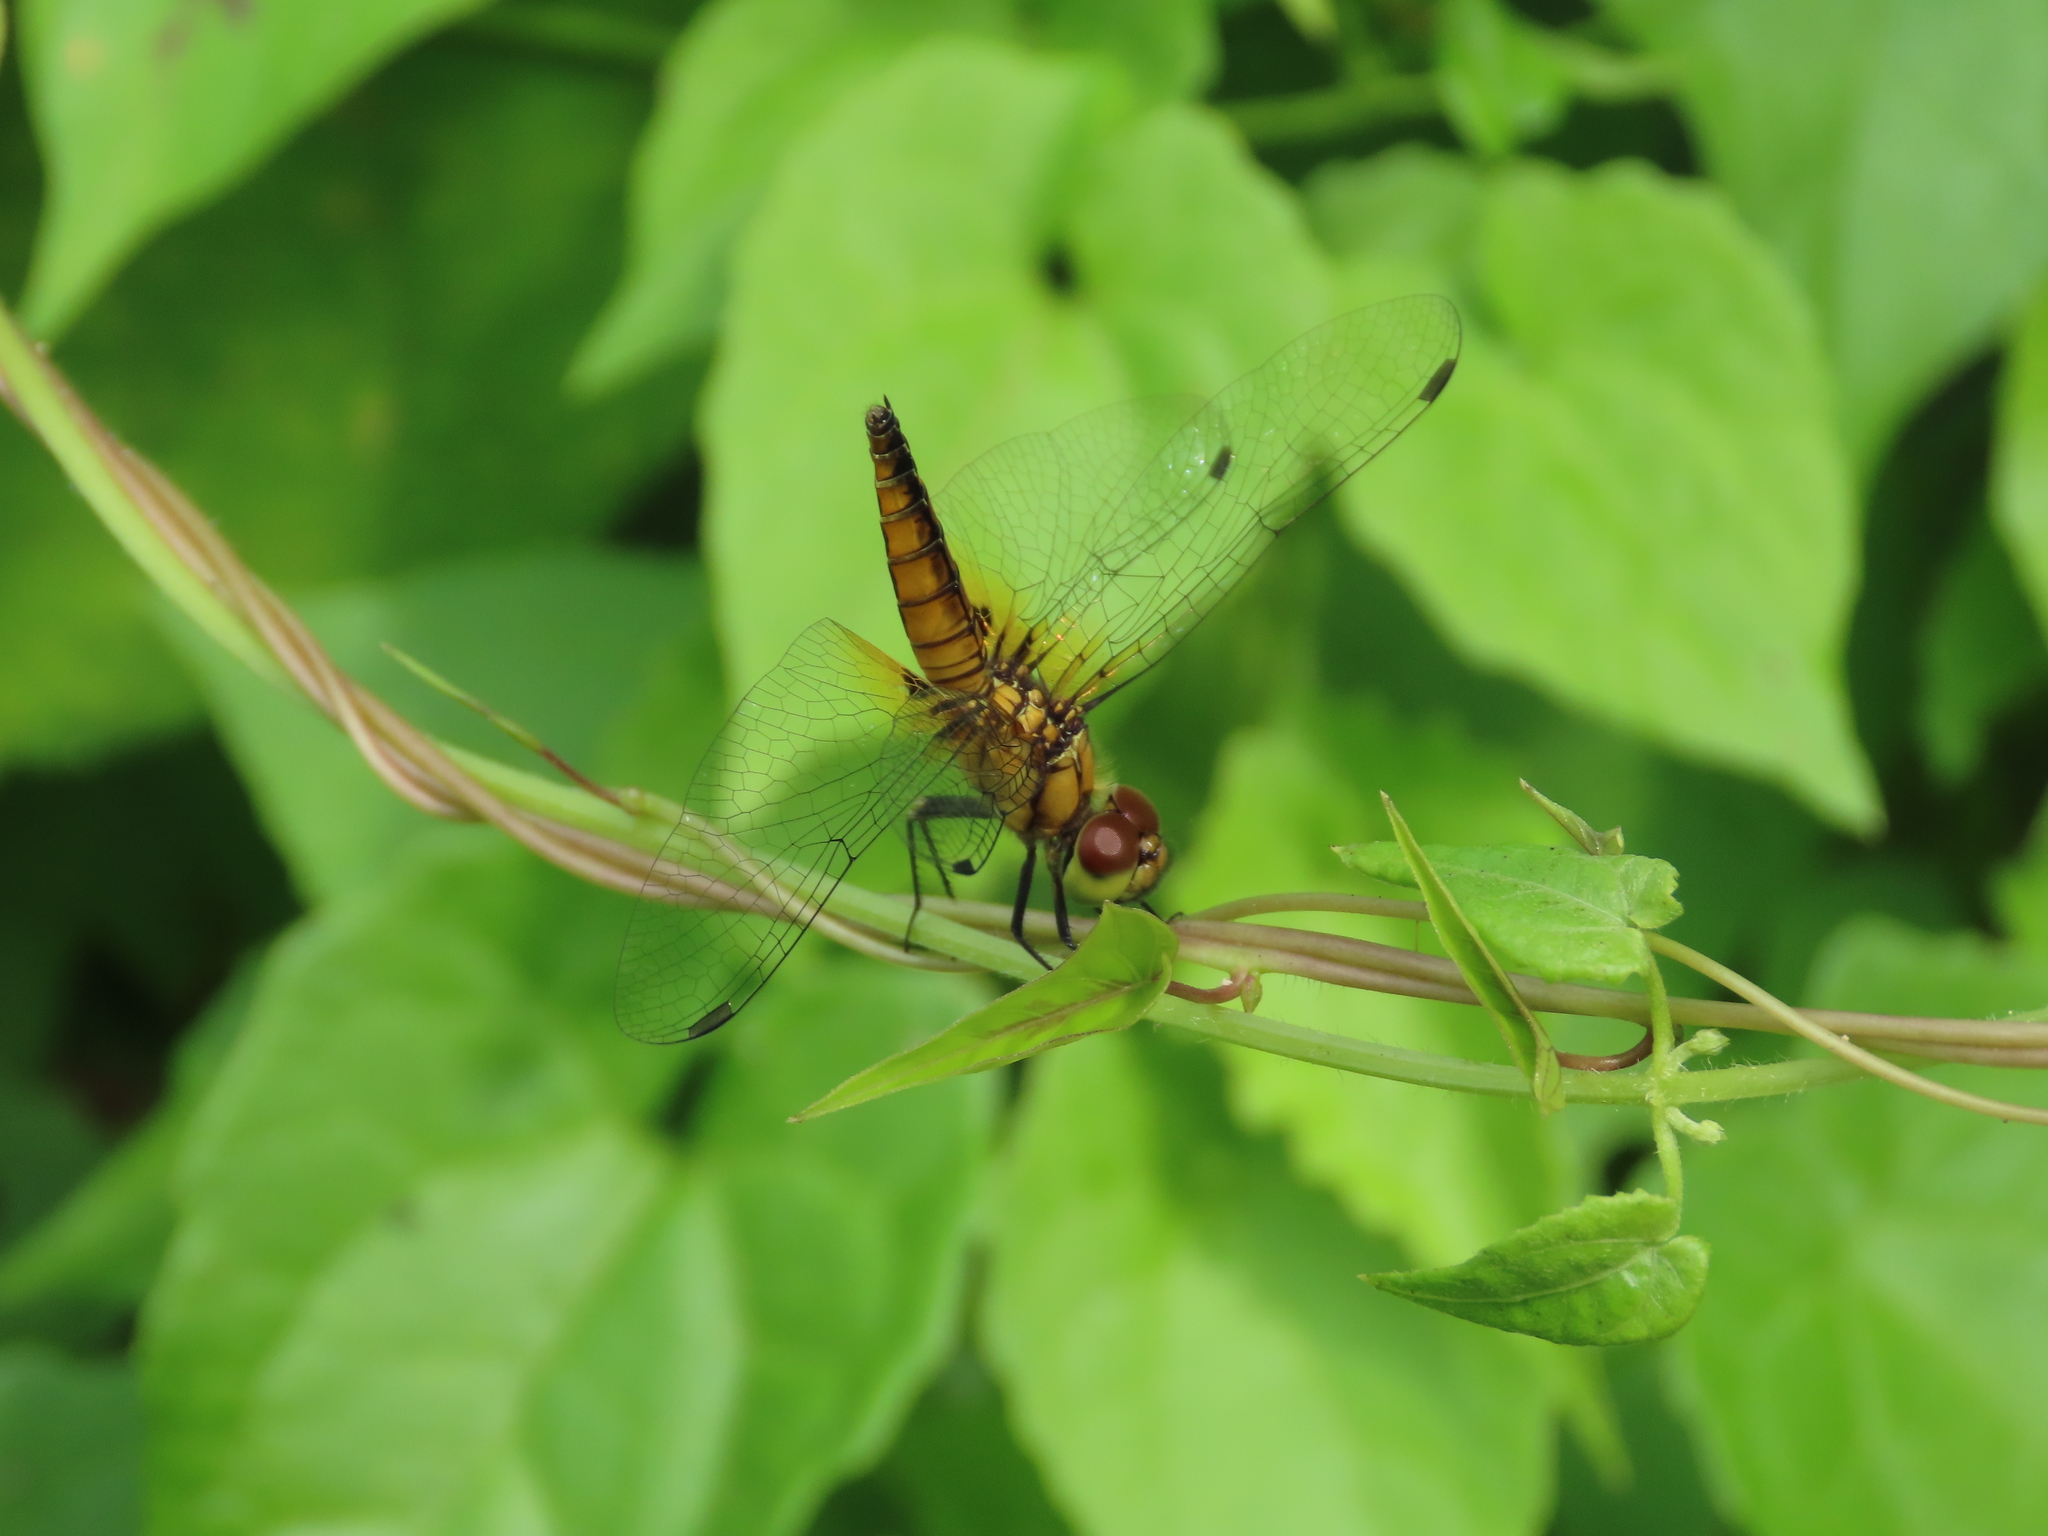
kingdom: Animalia
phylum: Arthropoda
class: Insecta
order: Odonata
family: Libellulidae
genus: Aethriamanta
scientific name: Aethriamanta brevipennis
